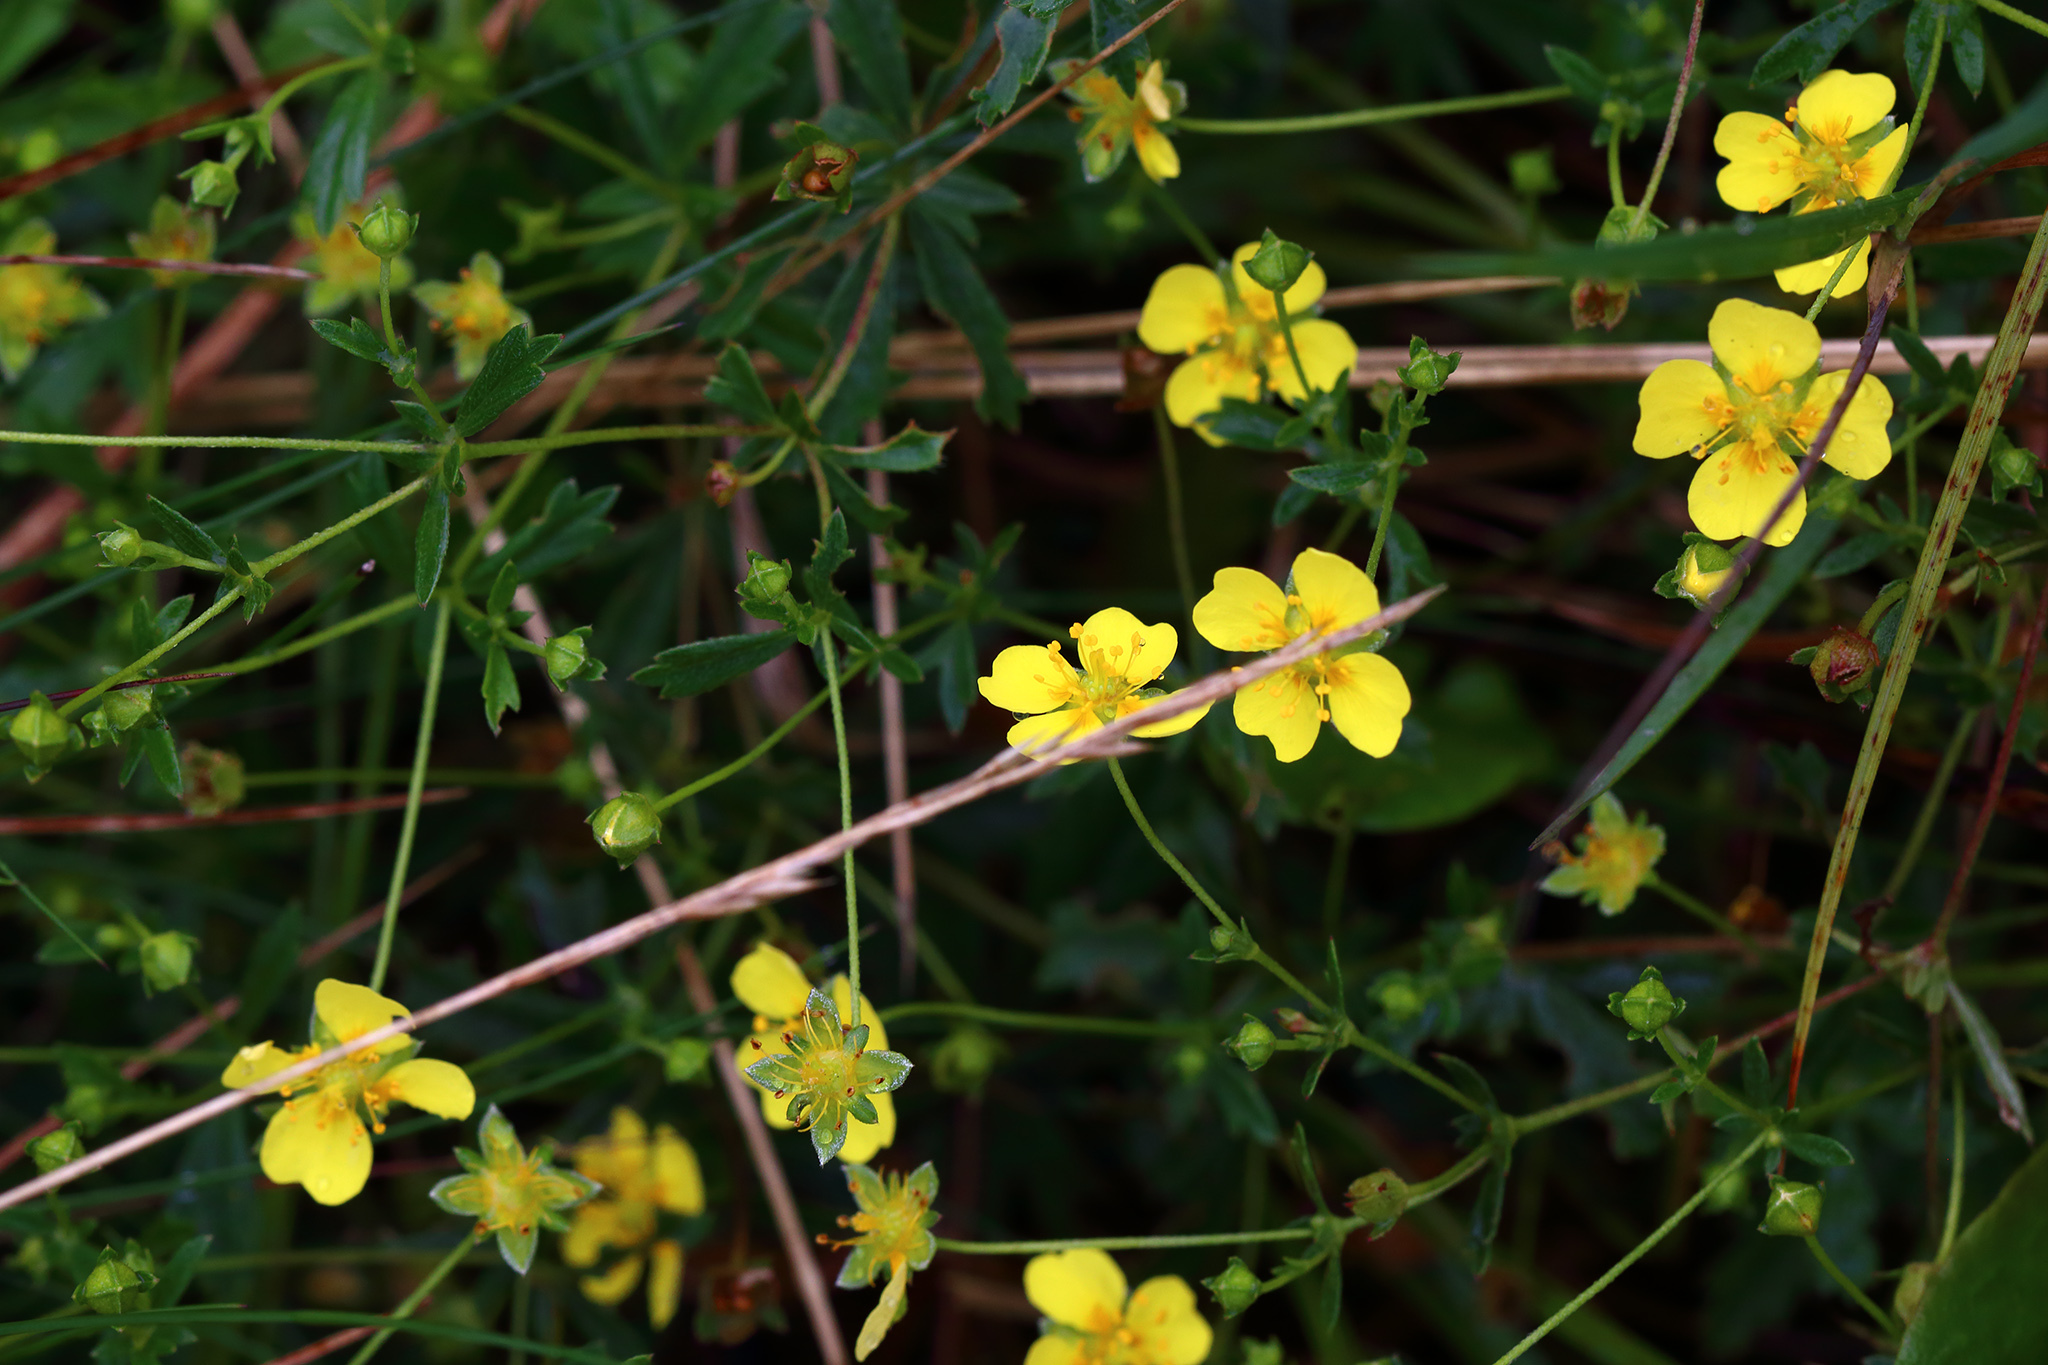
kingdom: Plantae
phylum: Tracheophyta
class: Magnoliopsida
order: Rosales
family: Rosaceae
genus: Potentilla
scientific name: Potentilla erecta
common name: Tormentil
